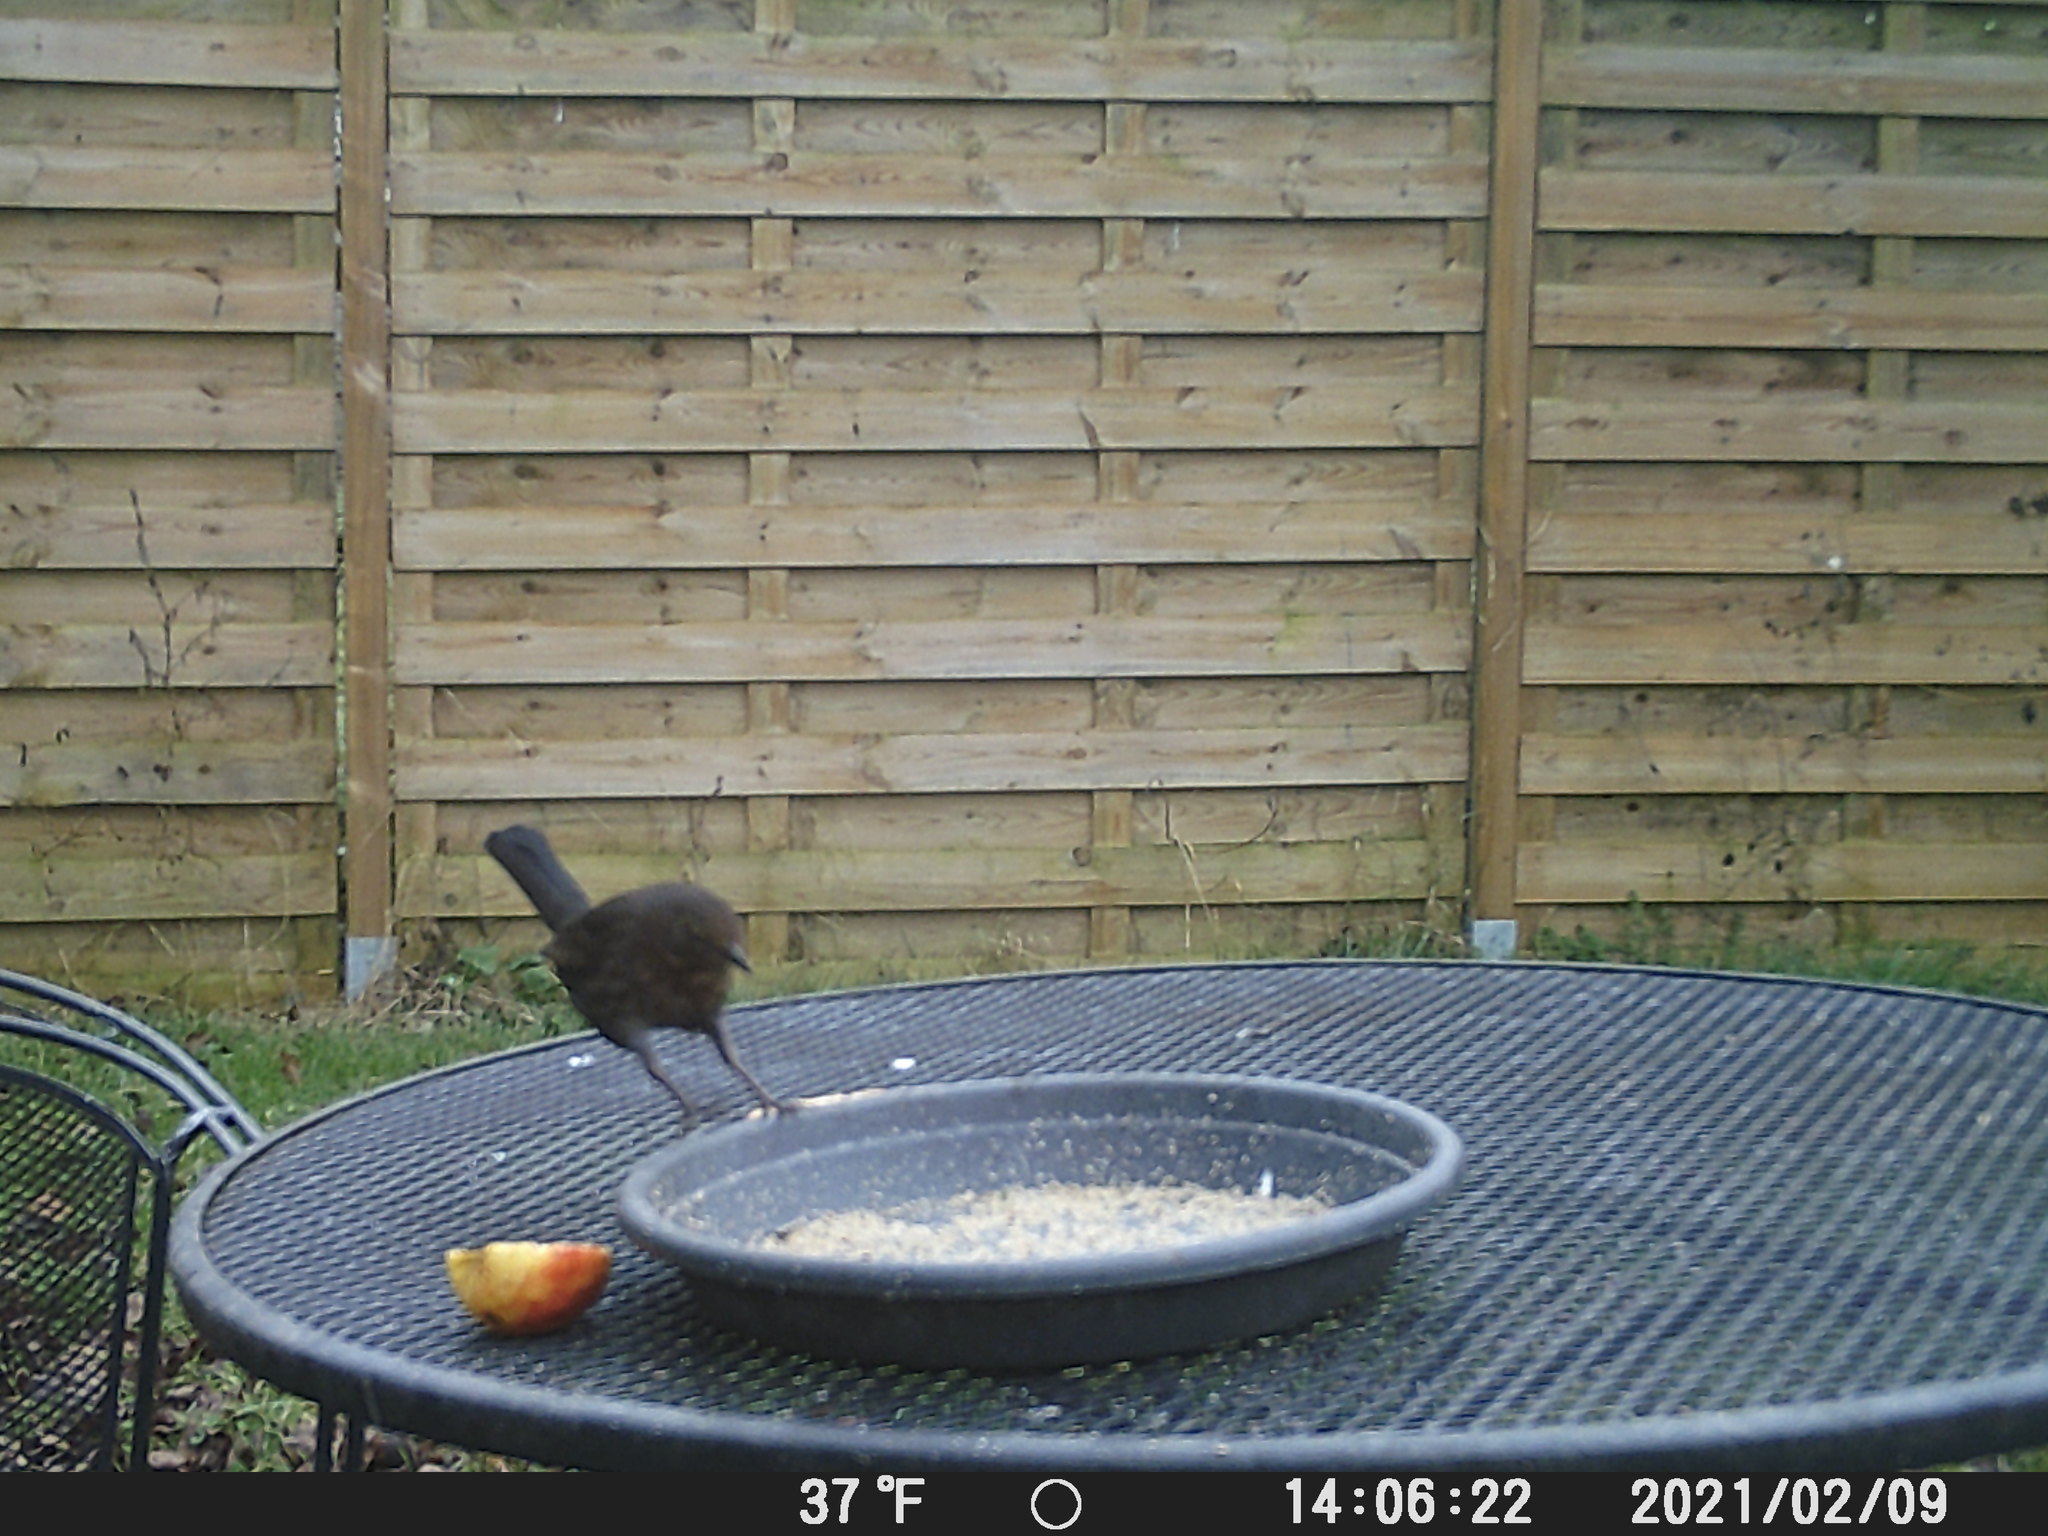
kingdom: Animalia
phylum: Chordata
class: Aves
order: Passeriformes
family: Turdidae
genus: Turdus
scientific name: Turdus merula
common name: Common blackbird
